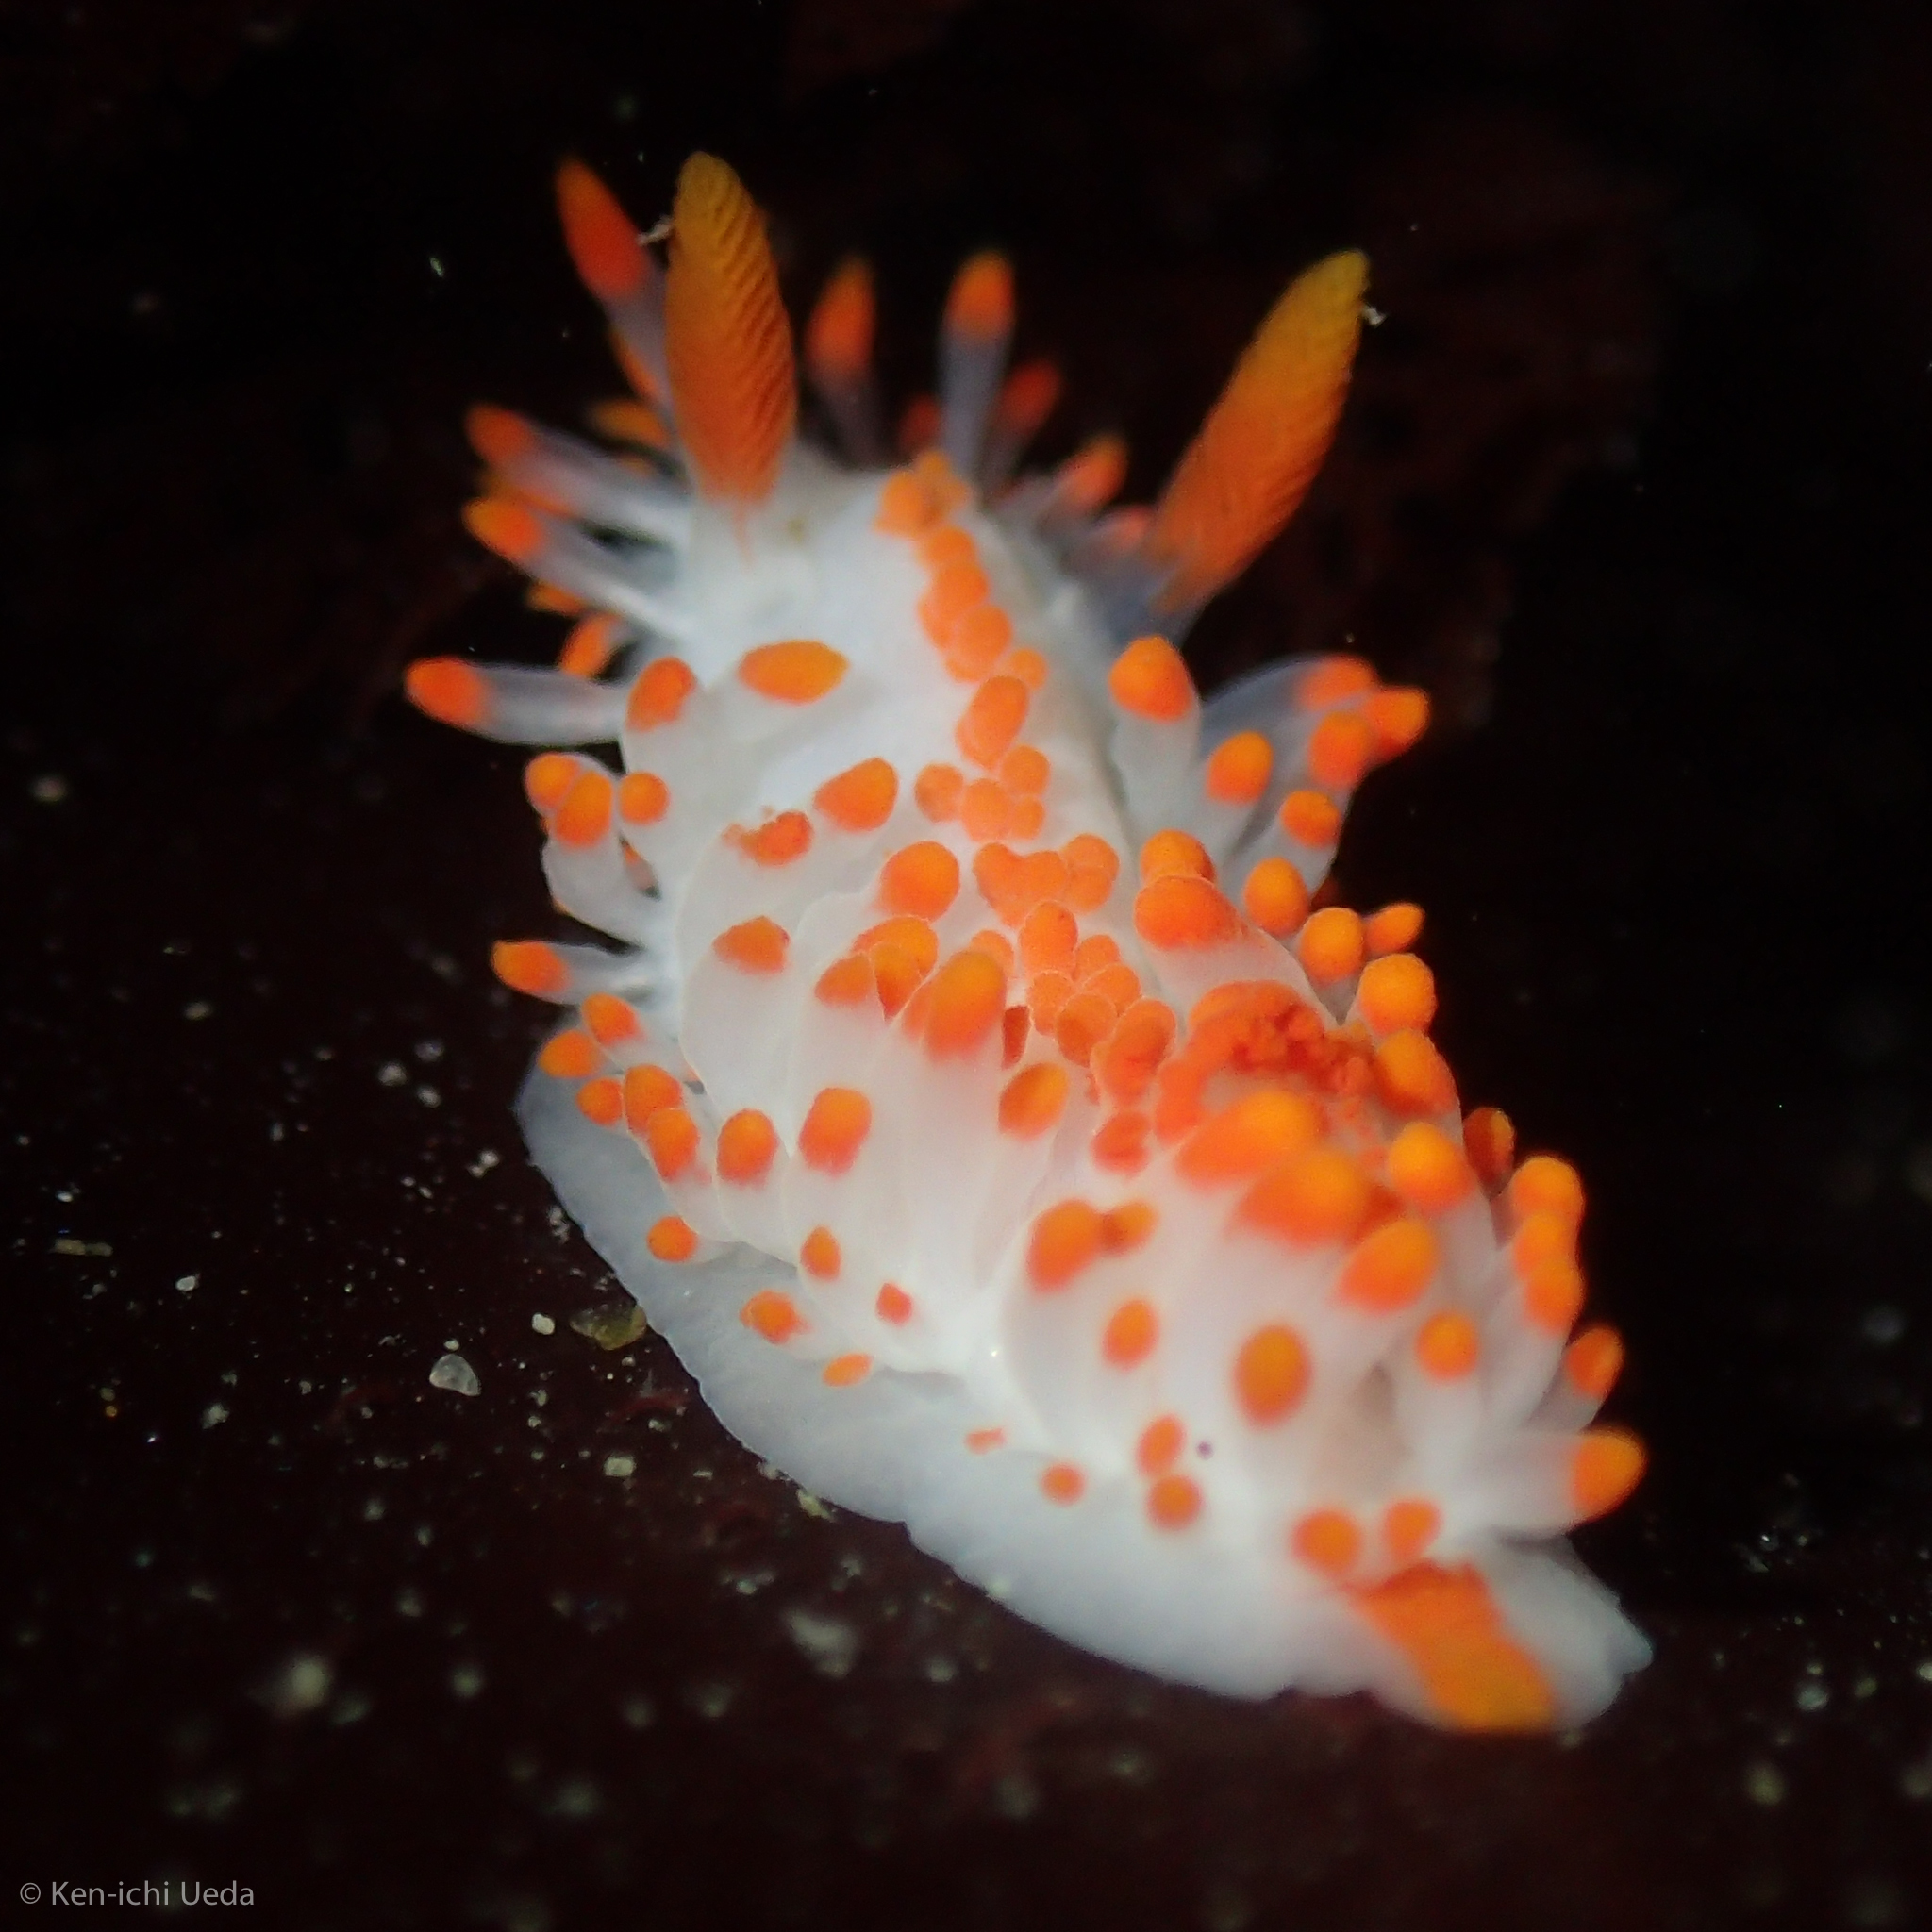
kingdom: Animalia
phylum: Mollusca
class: Gastropoda
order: Nudibranchia
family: Polyceridae
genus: Limacia
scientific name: Limacia mcdonaldi
